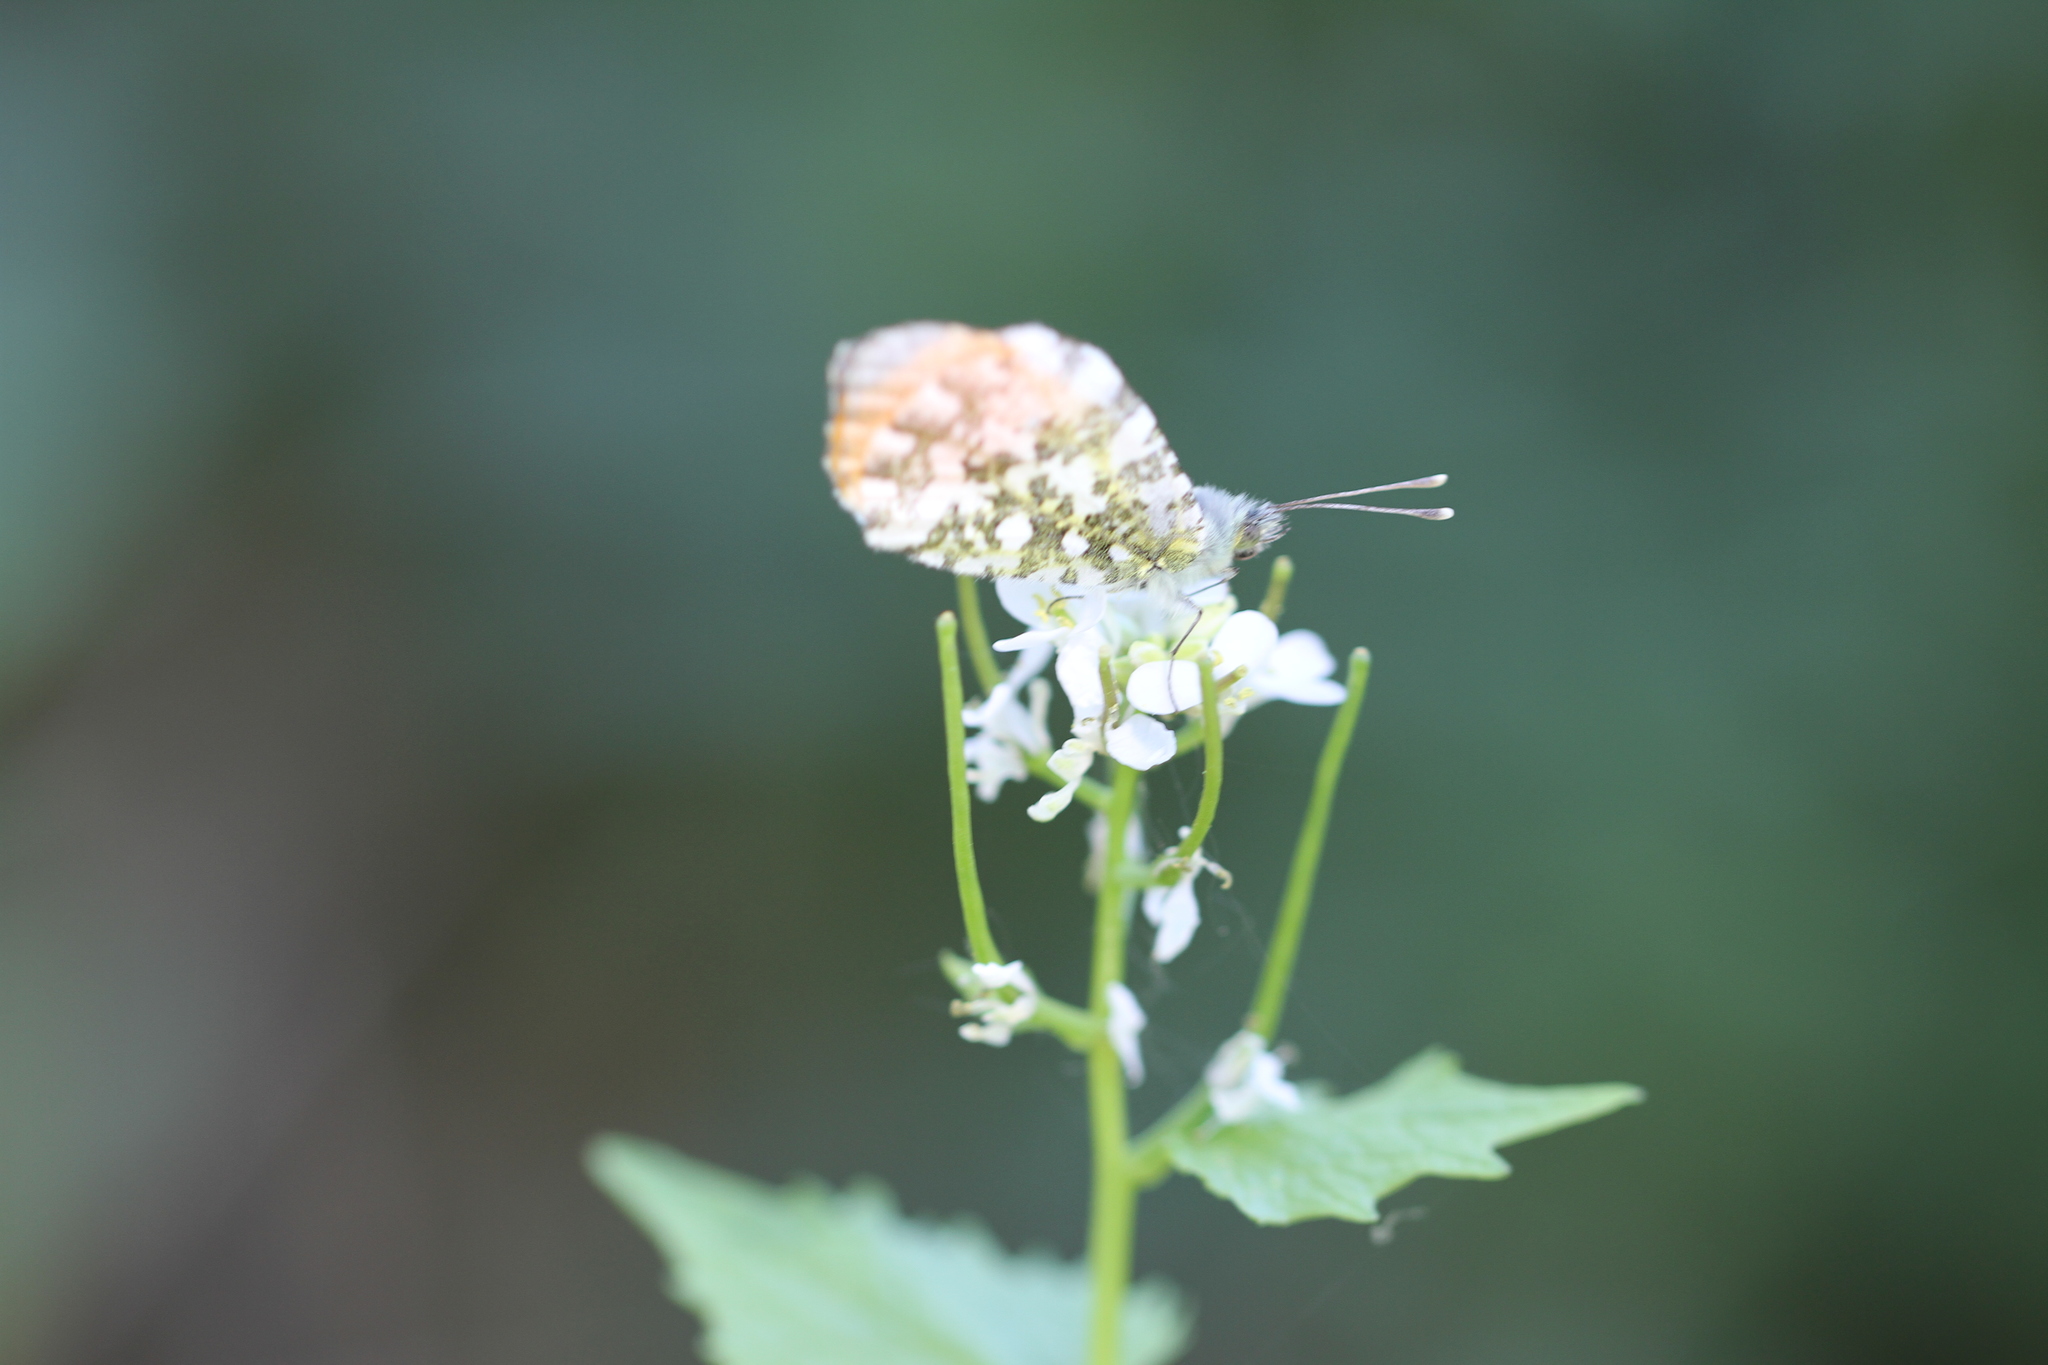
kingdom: Animalia
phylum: Arthropoda
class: Insecta
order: Lepidoptera
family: Pieridae
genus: Anthocharis
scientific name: Anthocharis cardamines
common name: Orange-tip
